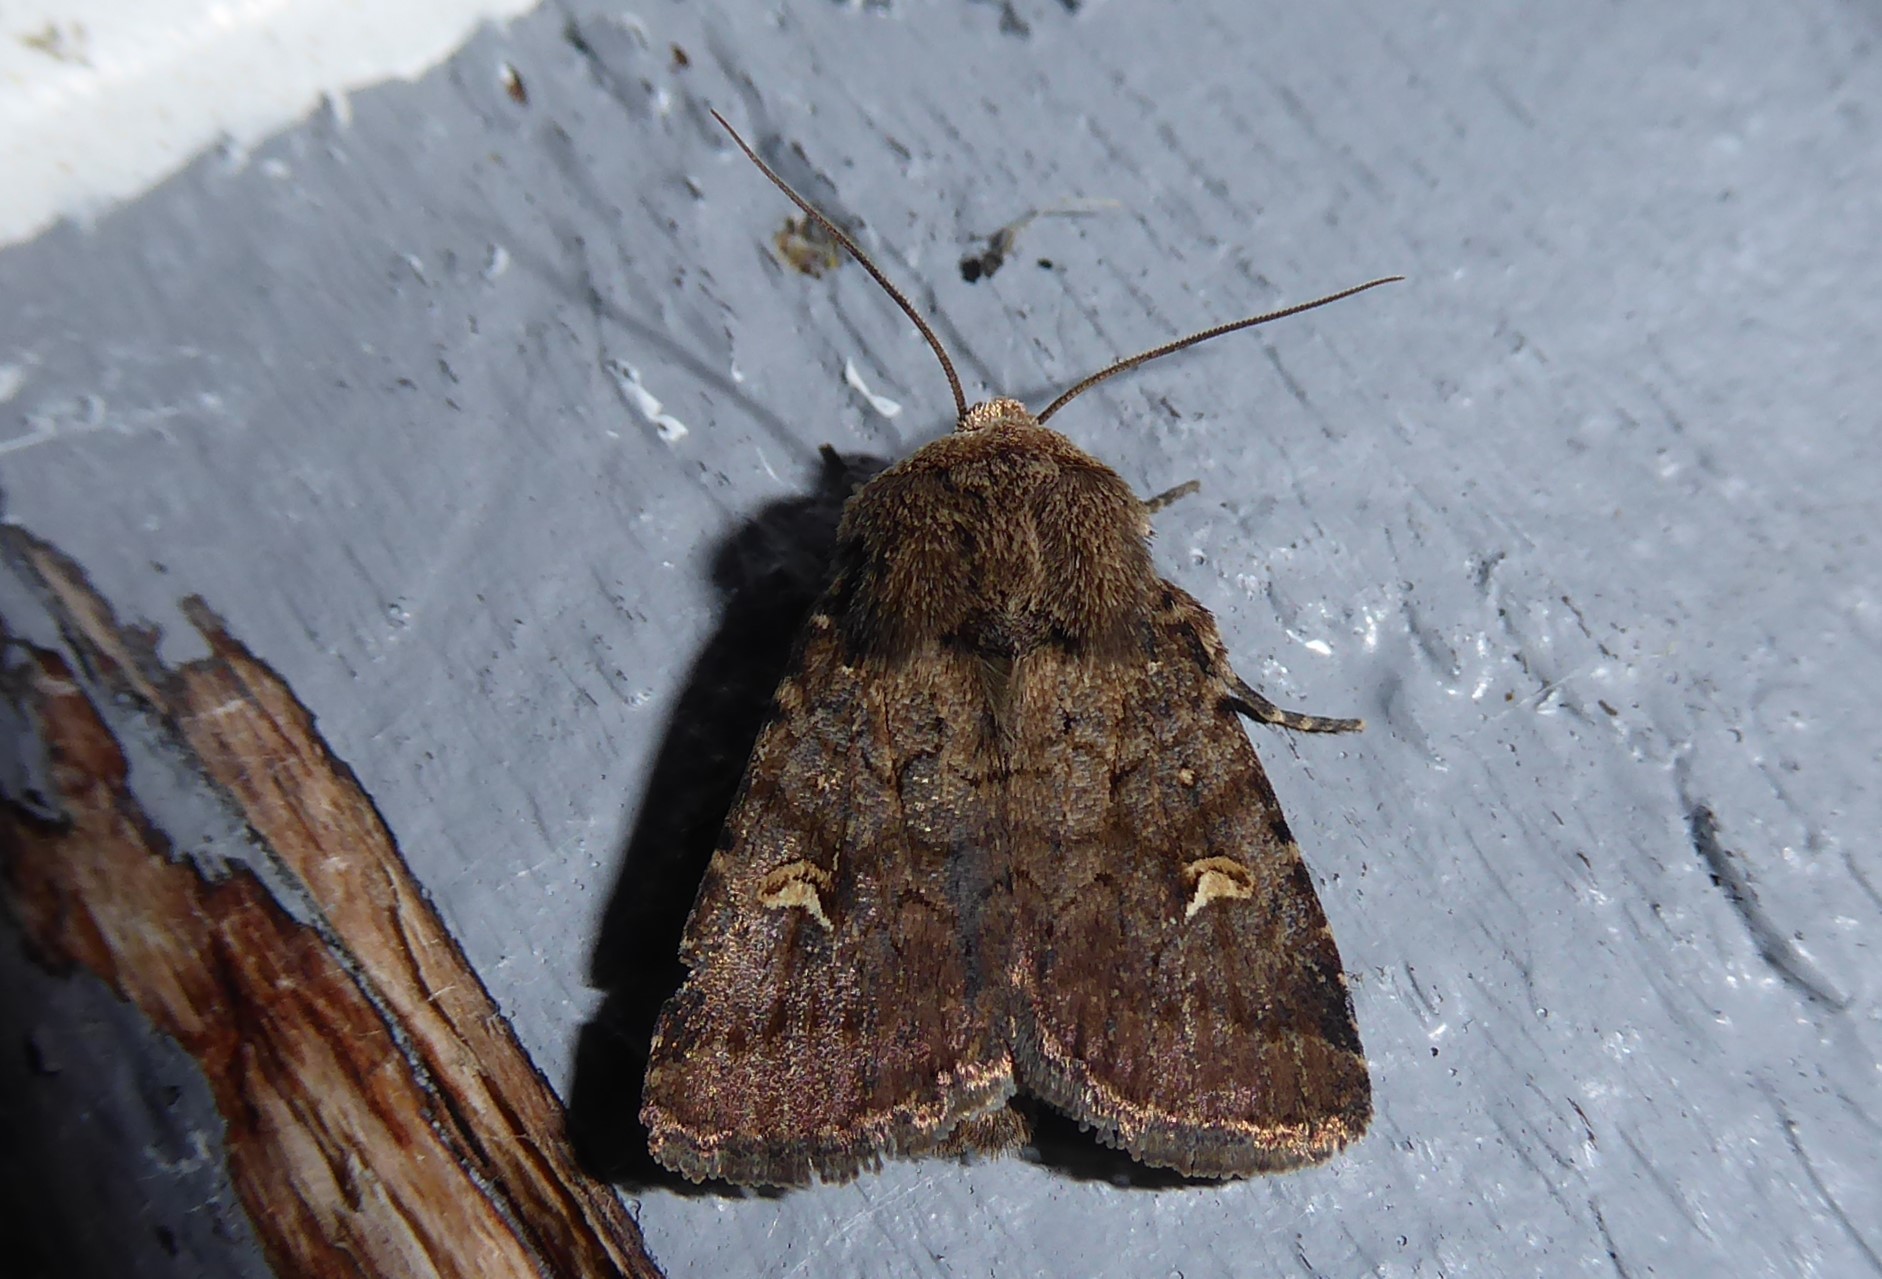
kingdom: Animalia
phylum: Arthropoda
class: Insecta
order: Lepidoptera
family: Noctuidae
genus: Proteuxoa
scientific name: Proteuxoa tetronycha
